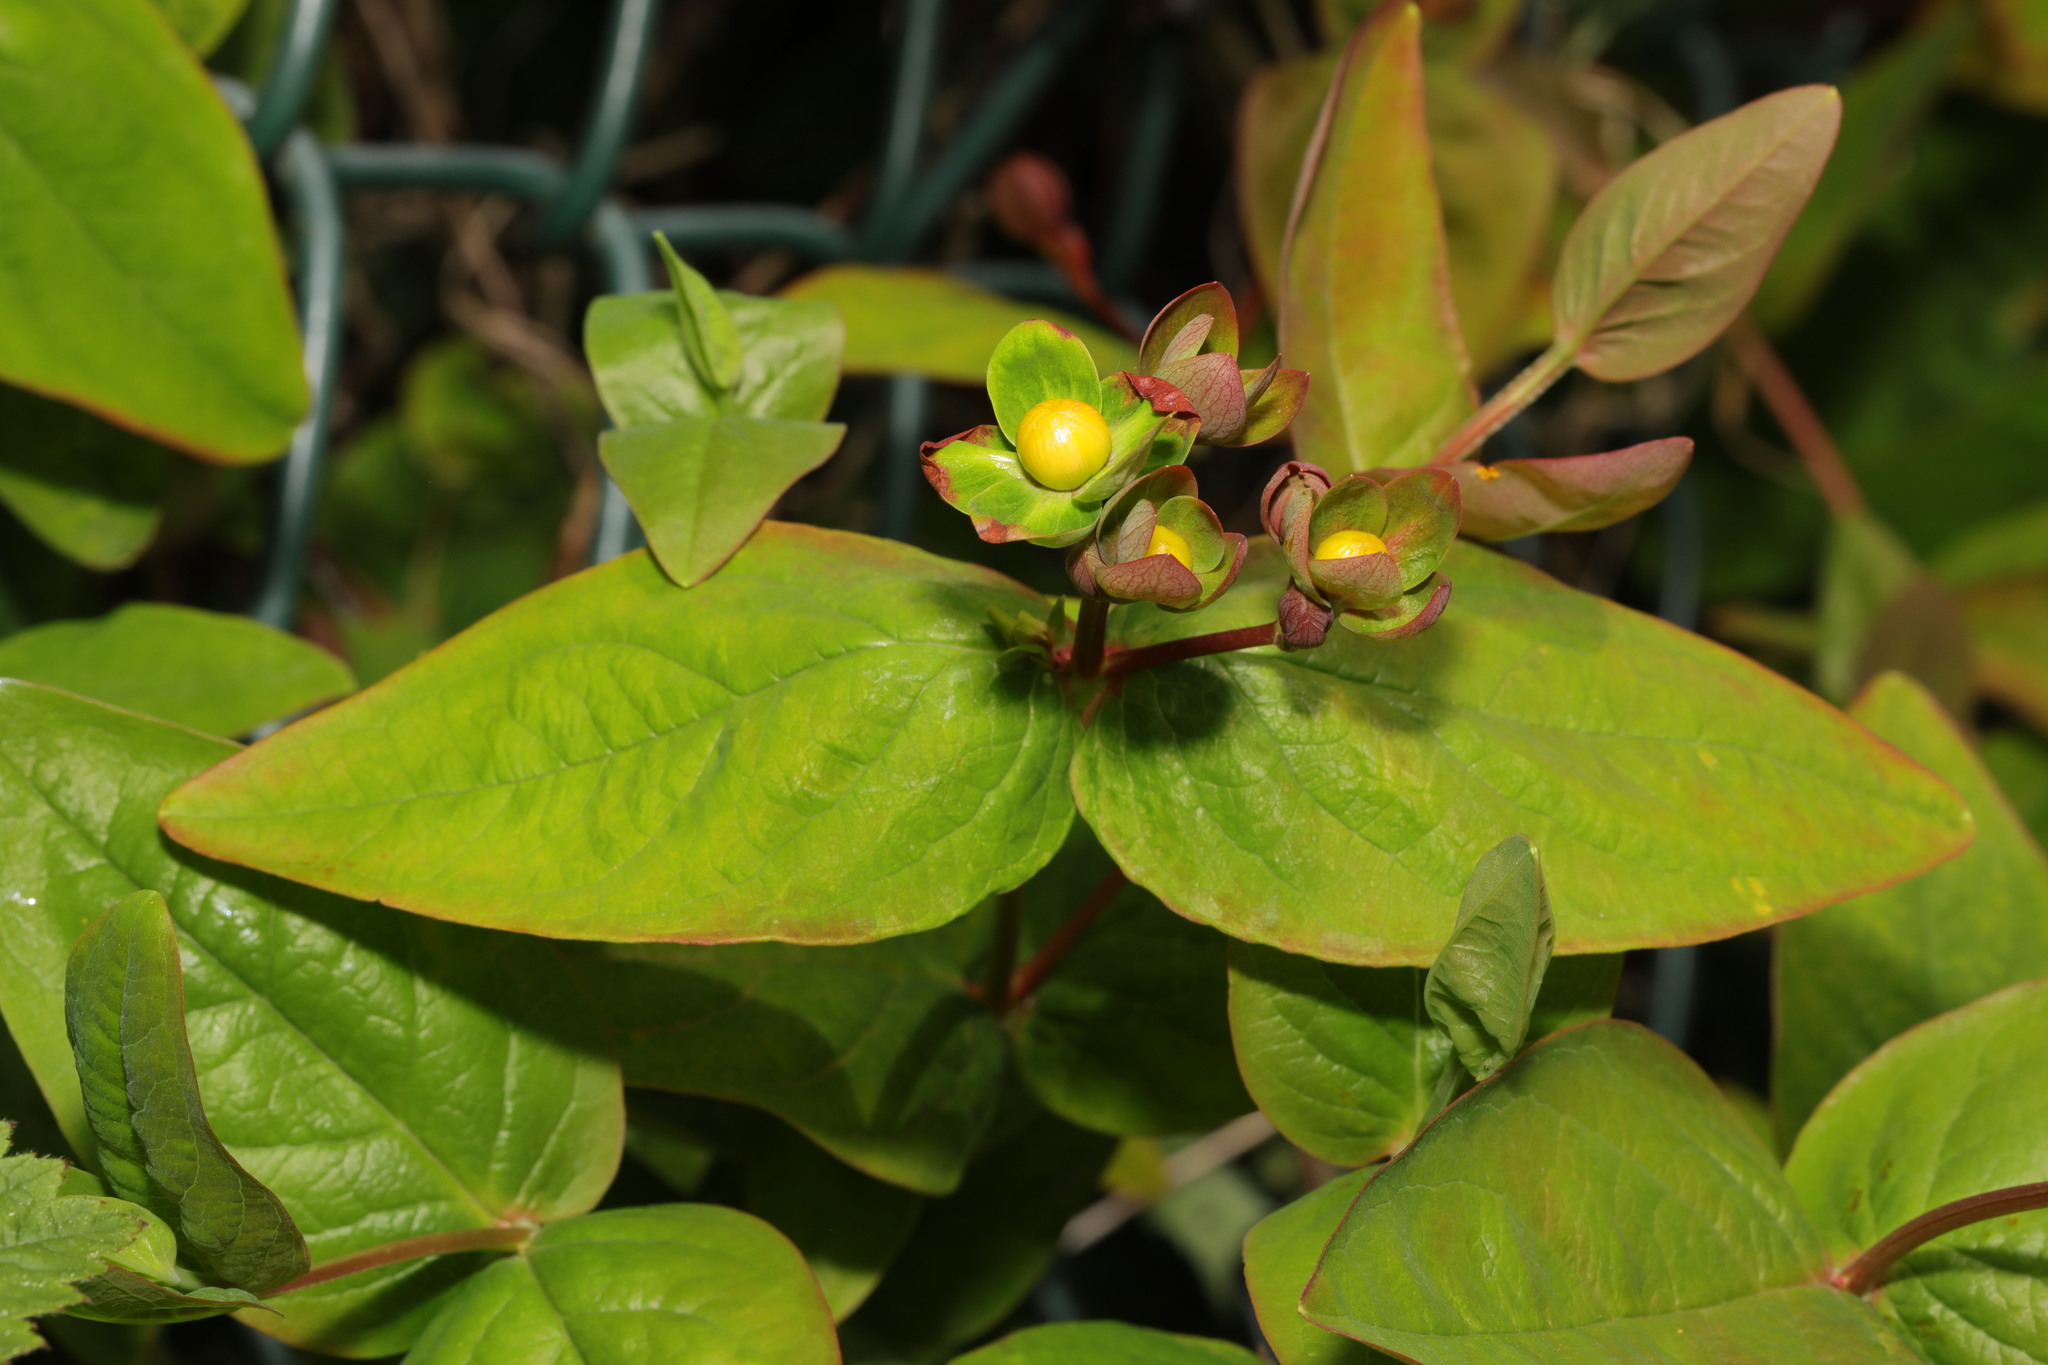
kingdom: Plantae
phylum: Tracheophyta
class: Magnoliopsida
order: Malpighiales
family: Hypericaceae
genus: Hypericum
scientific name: Hypericum androsaemum
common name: Sweet-amber
